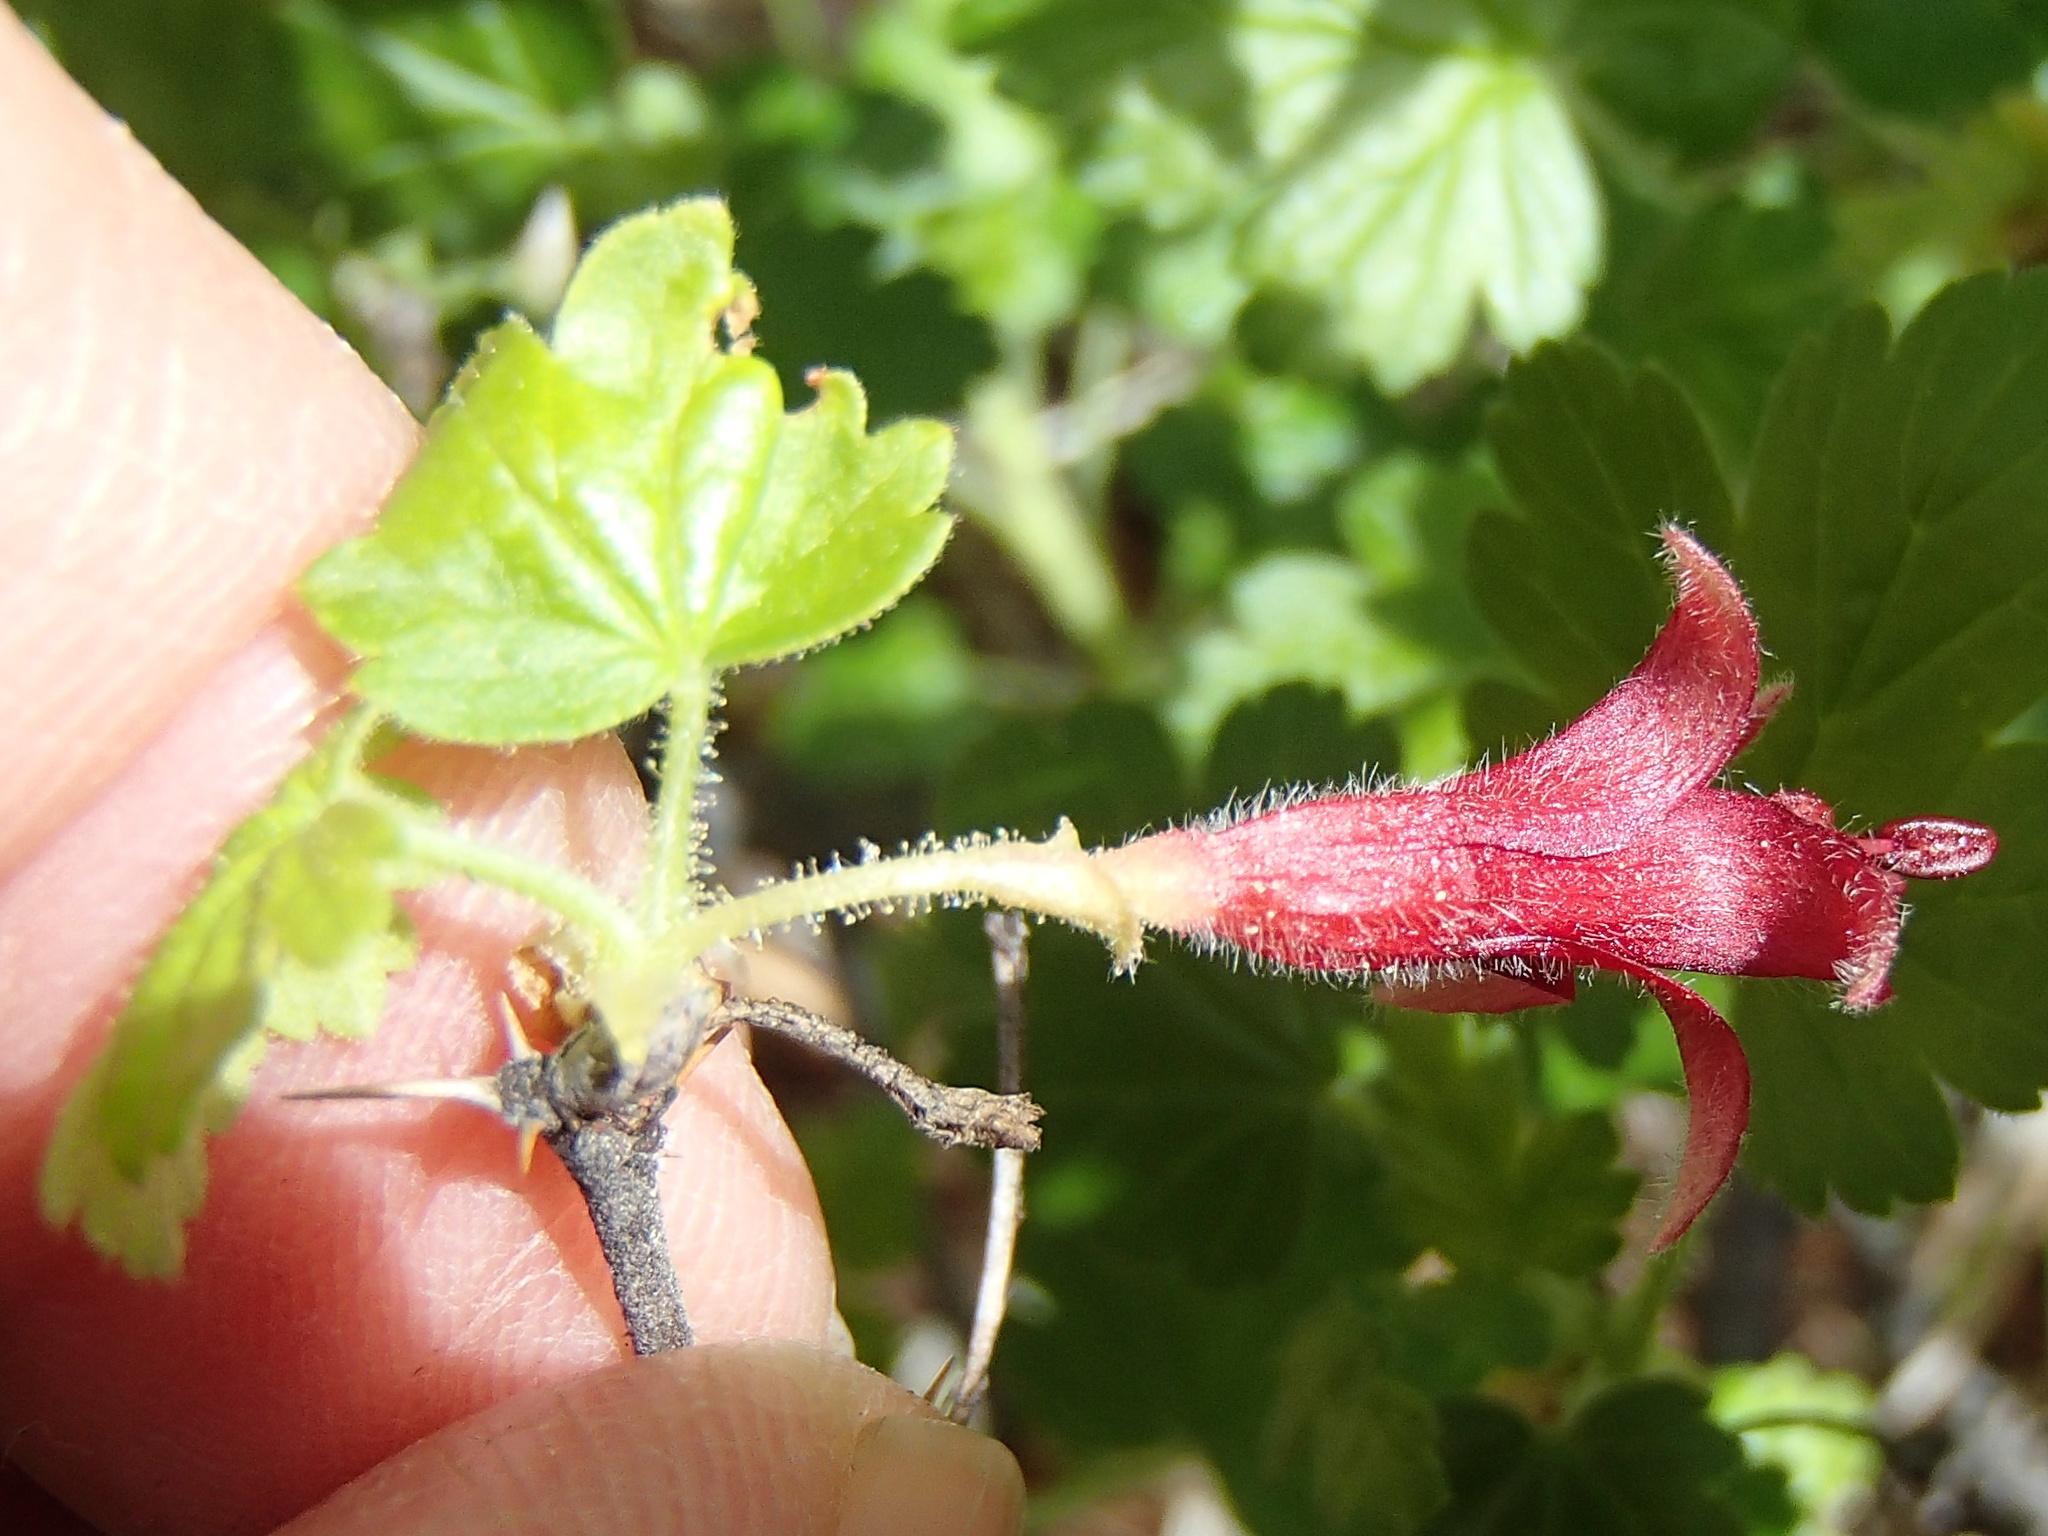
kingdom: Plantae
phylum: Tracheophyta
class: Magnoliopsida
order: Saxifragales
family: Grossulariaceae
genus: Ribes
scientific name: Ribes lobbii
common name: Gummy gooseberry
